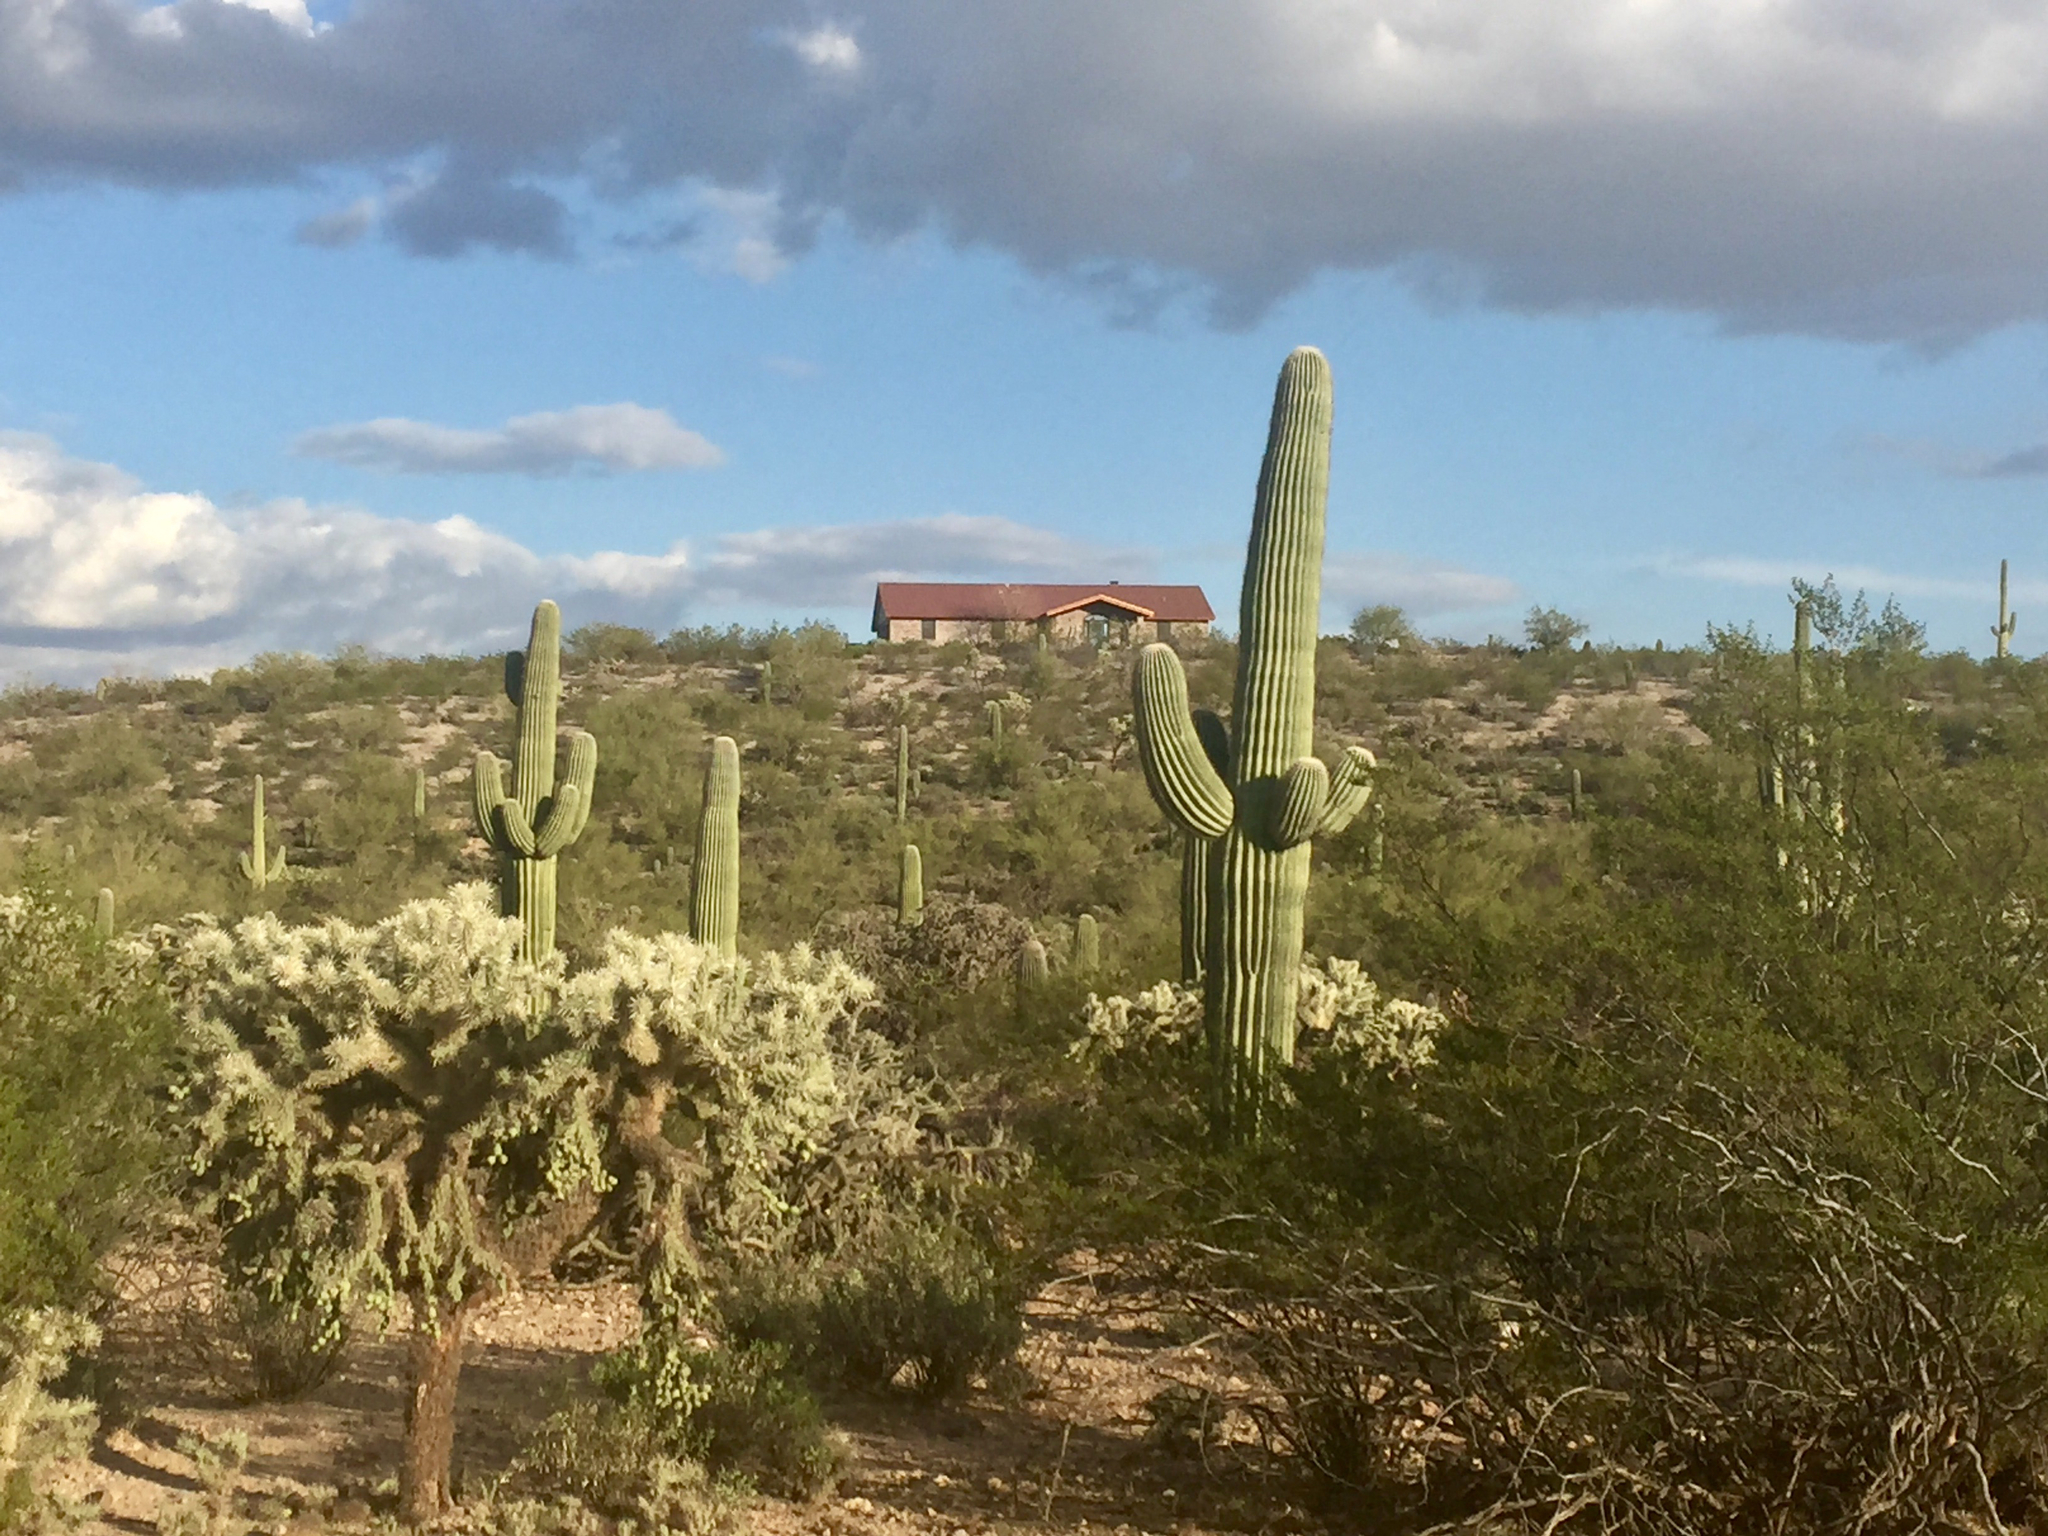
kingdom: Plantae
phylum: Tracheophyta
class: Magnoliopsida
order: Caryophyllales
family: Cactaceae
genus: Cylindropuntia
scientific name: Cylindropuntia fulgida
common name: Jumping cholla
